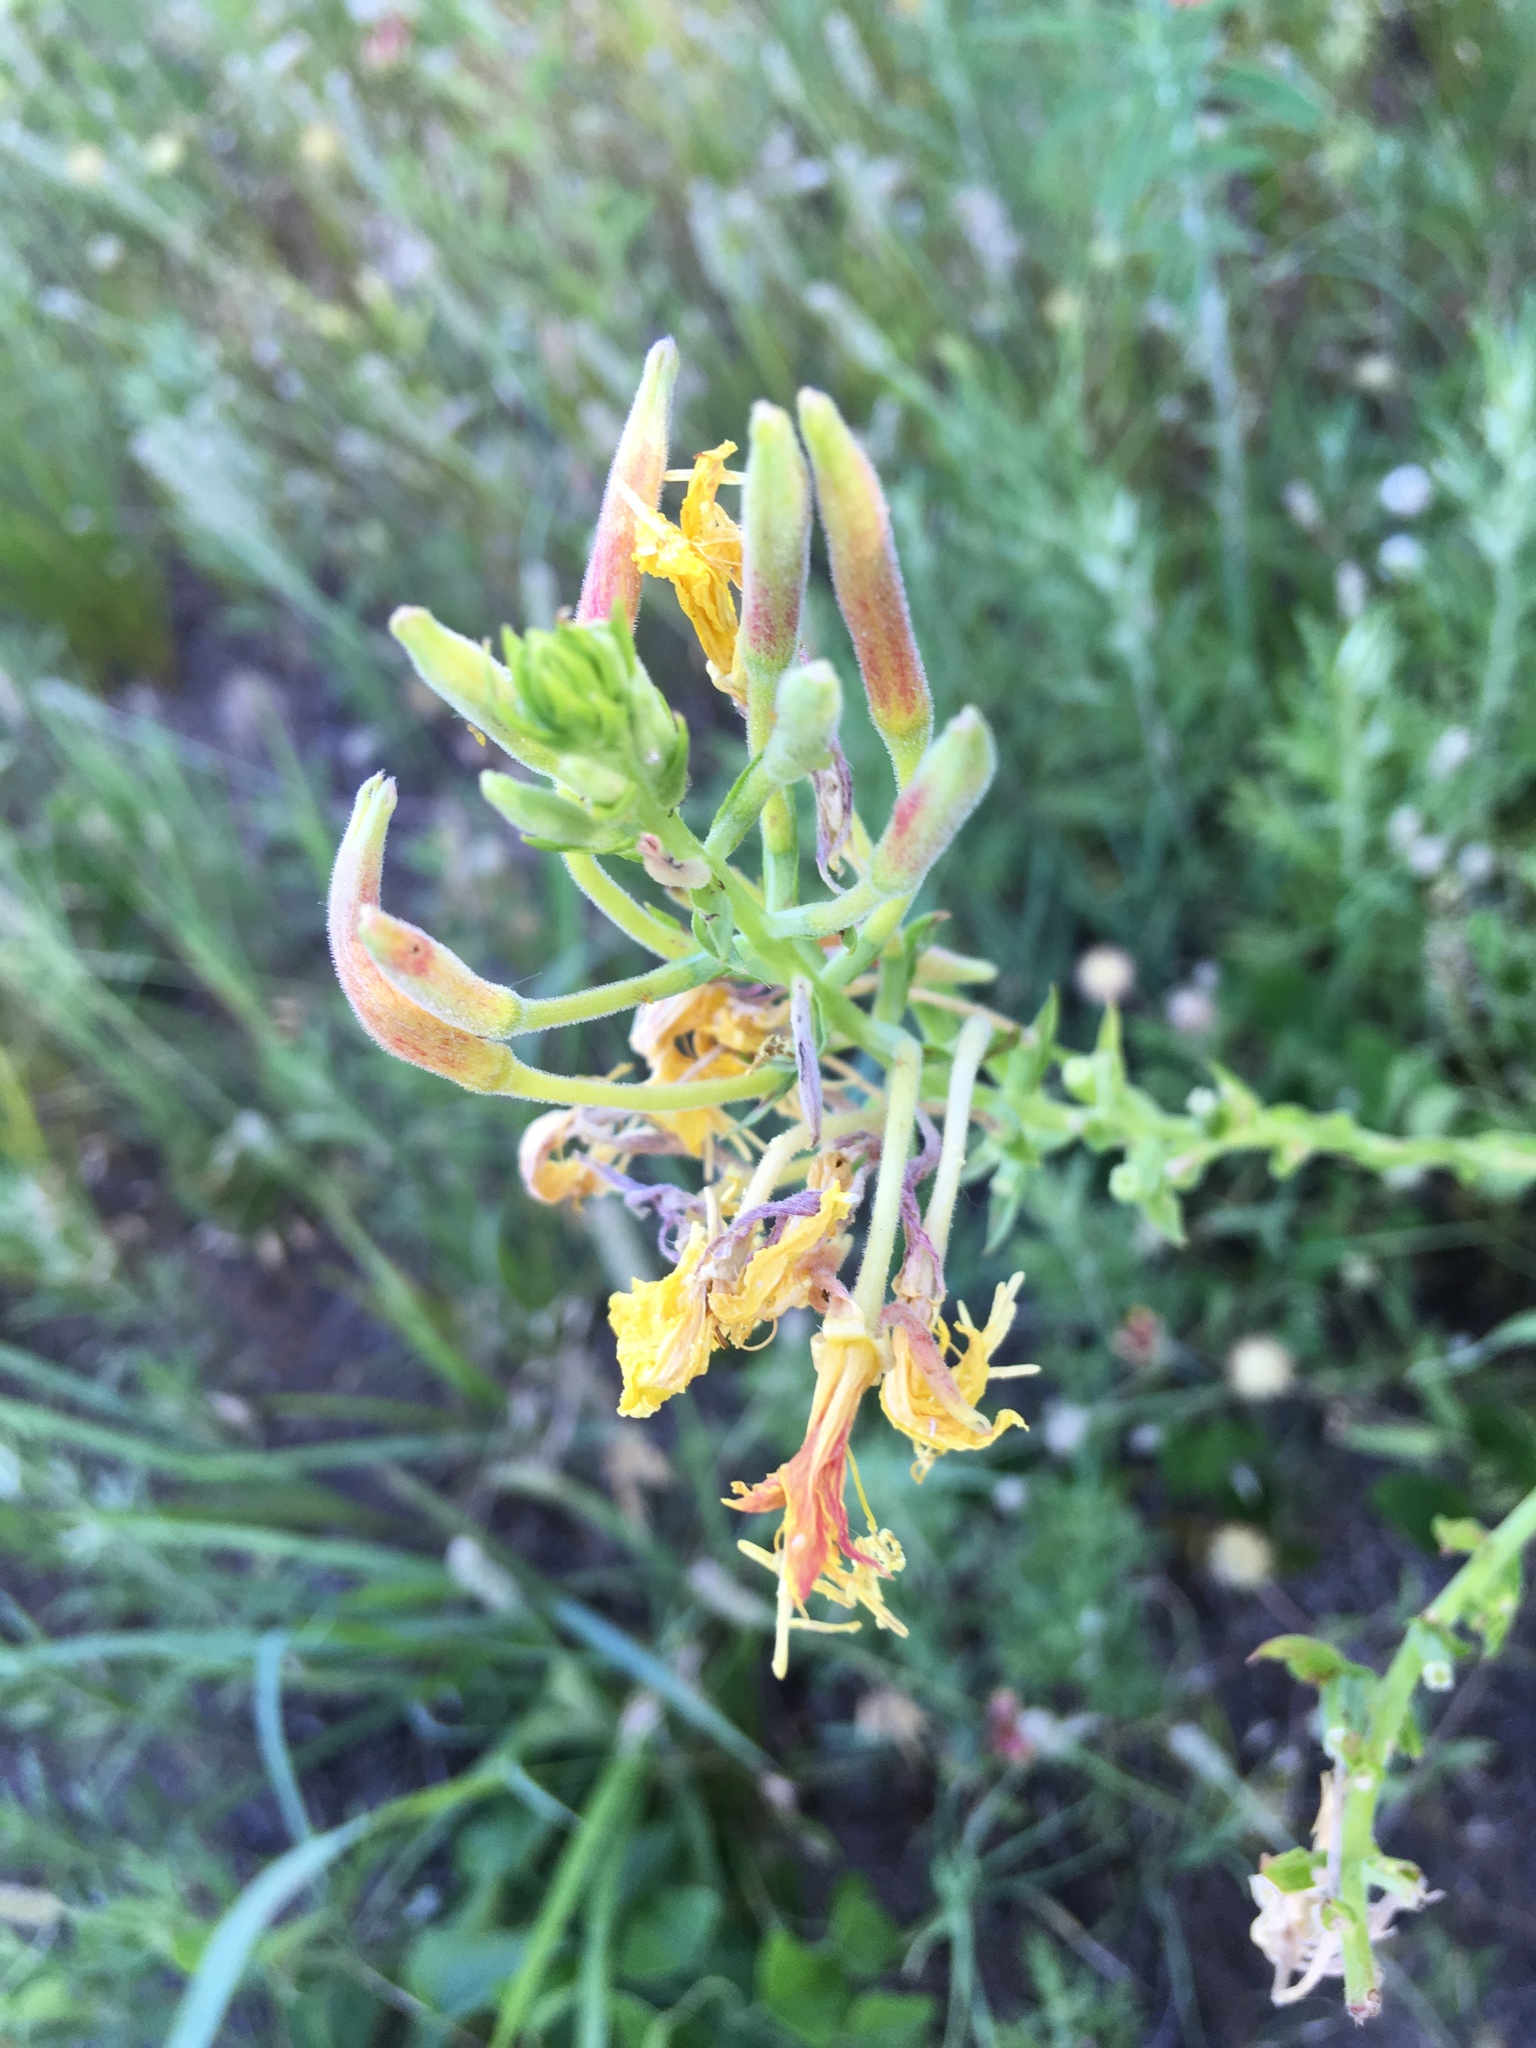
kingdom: Plantae
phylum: Tracheophyta
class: Magnoliopsida
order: Myrtales
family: Onagraceae
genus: Oenothera
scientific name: Oenothera rhombipetala
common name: Four-points evening-primrose
